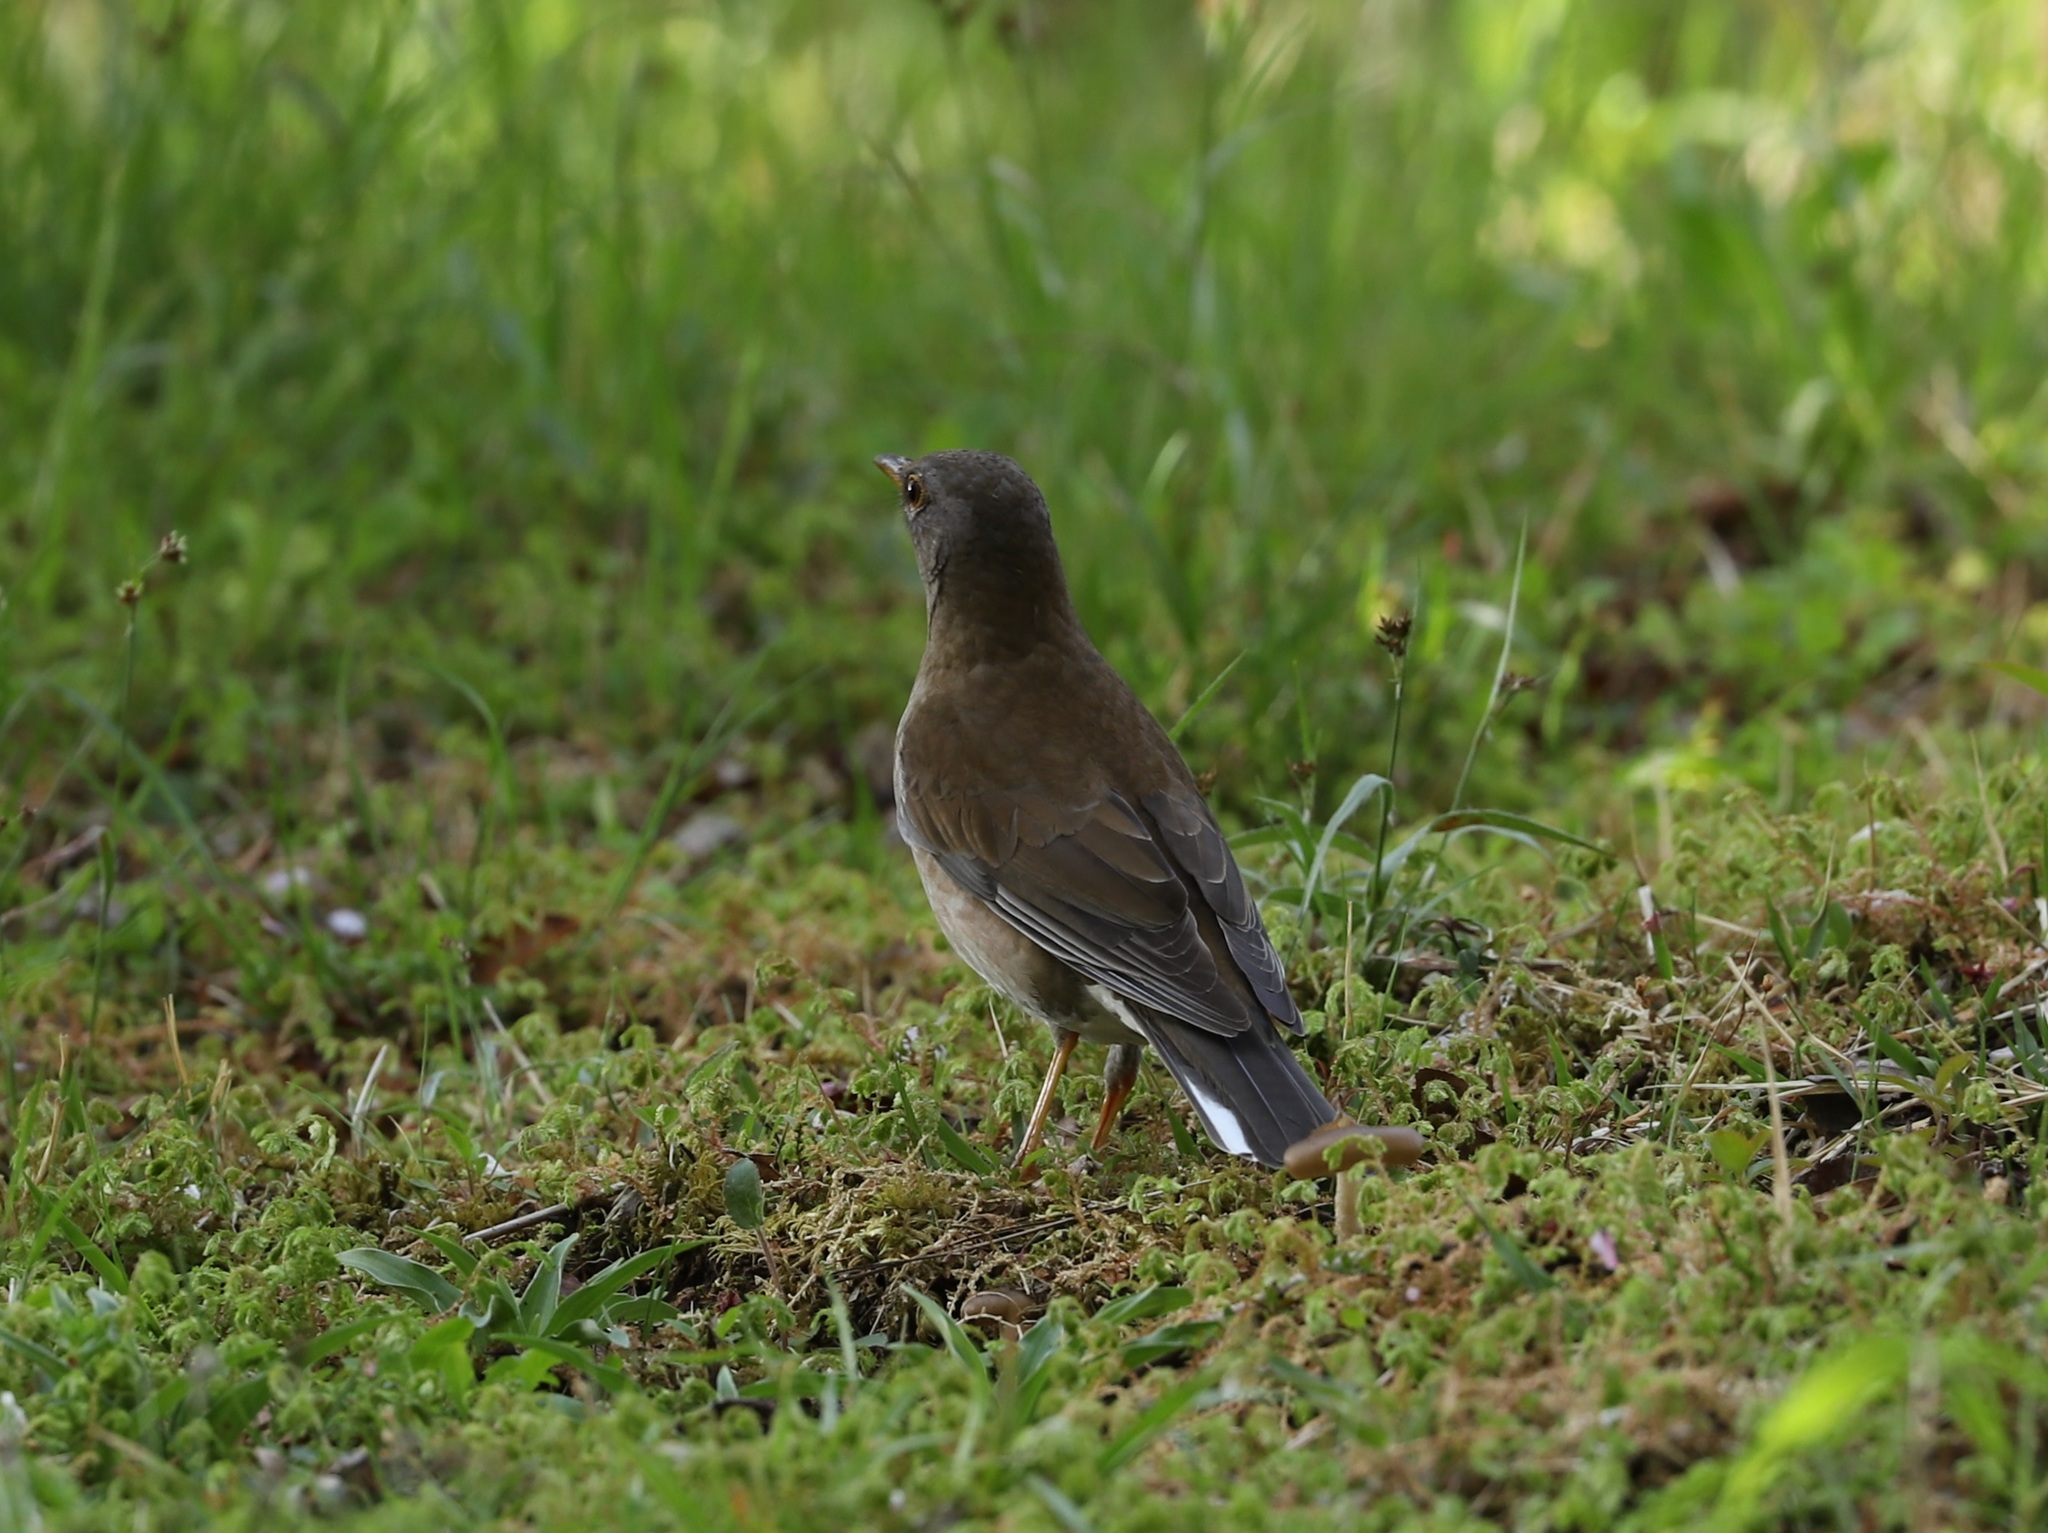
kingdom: Animalia
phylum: Chordata
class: Aves
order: Passeriformes
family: Turdidae
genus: Turdus
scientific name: Turdus pallidus
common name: Pale thrush
